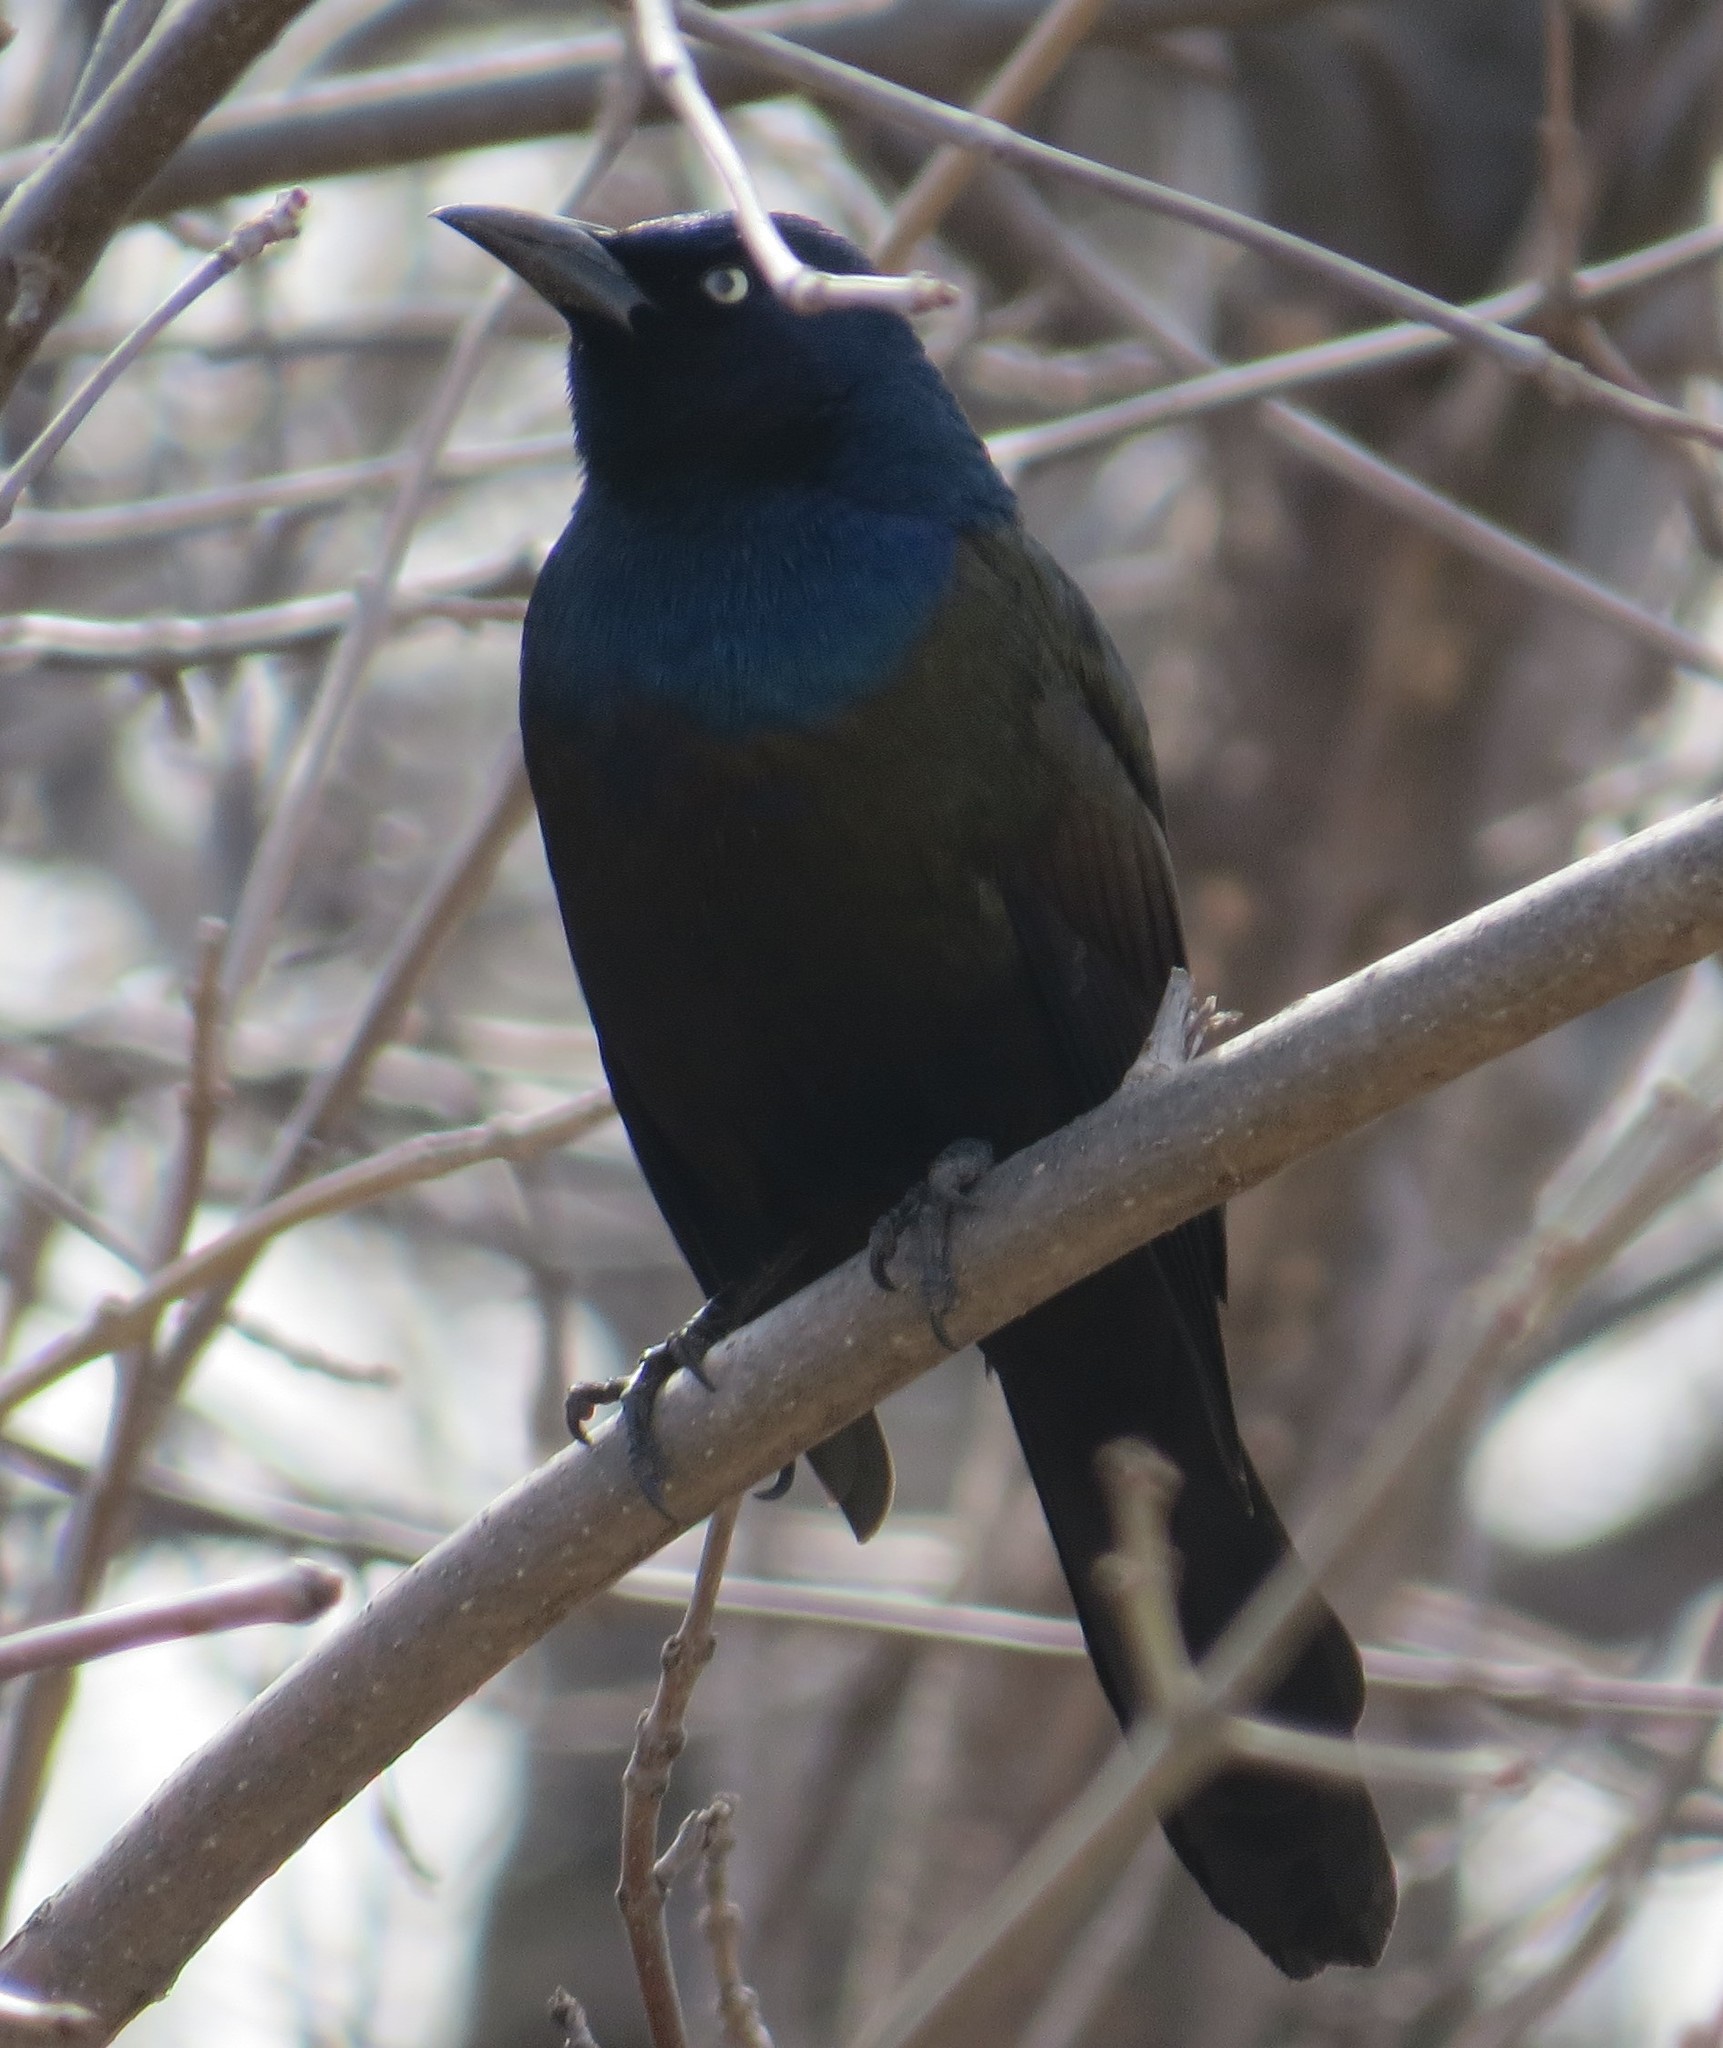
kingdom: Animalia
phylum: Chordata
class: Aves
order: Passeriformes
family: Icteridae
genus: Quiscalus
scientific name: Quiscalus quiscula
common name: Common grackle
